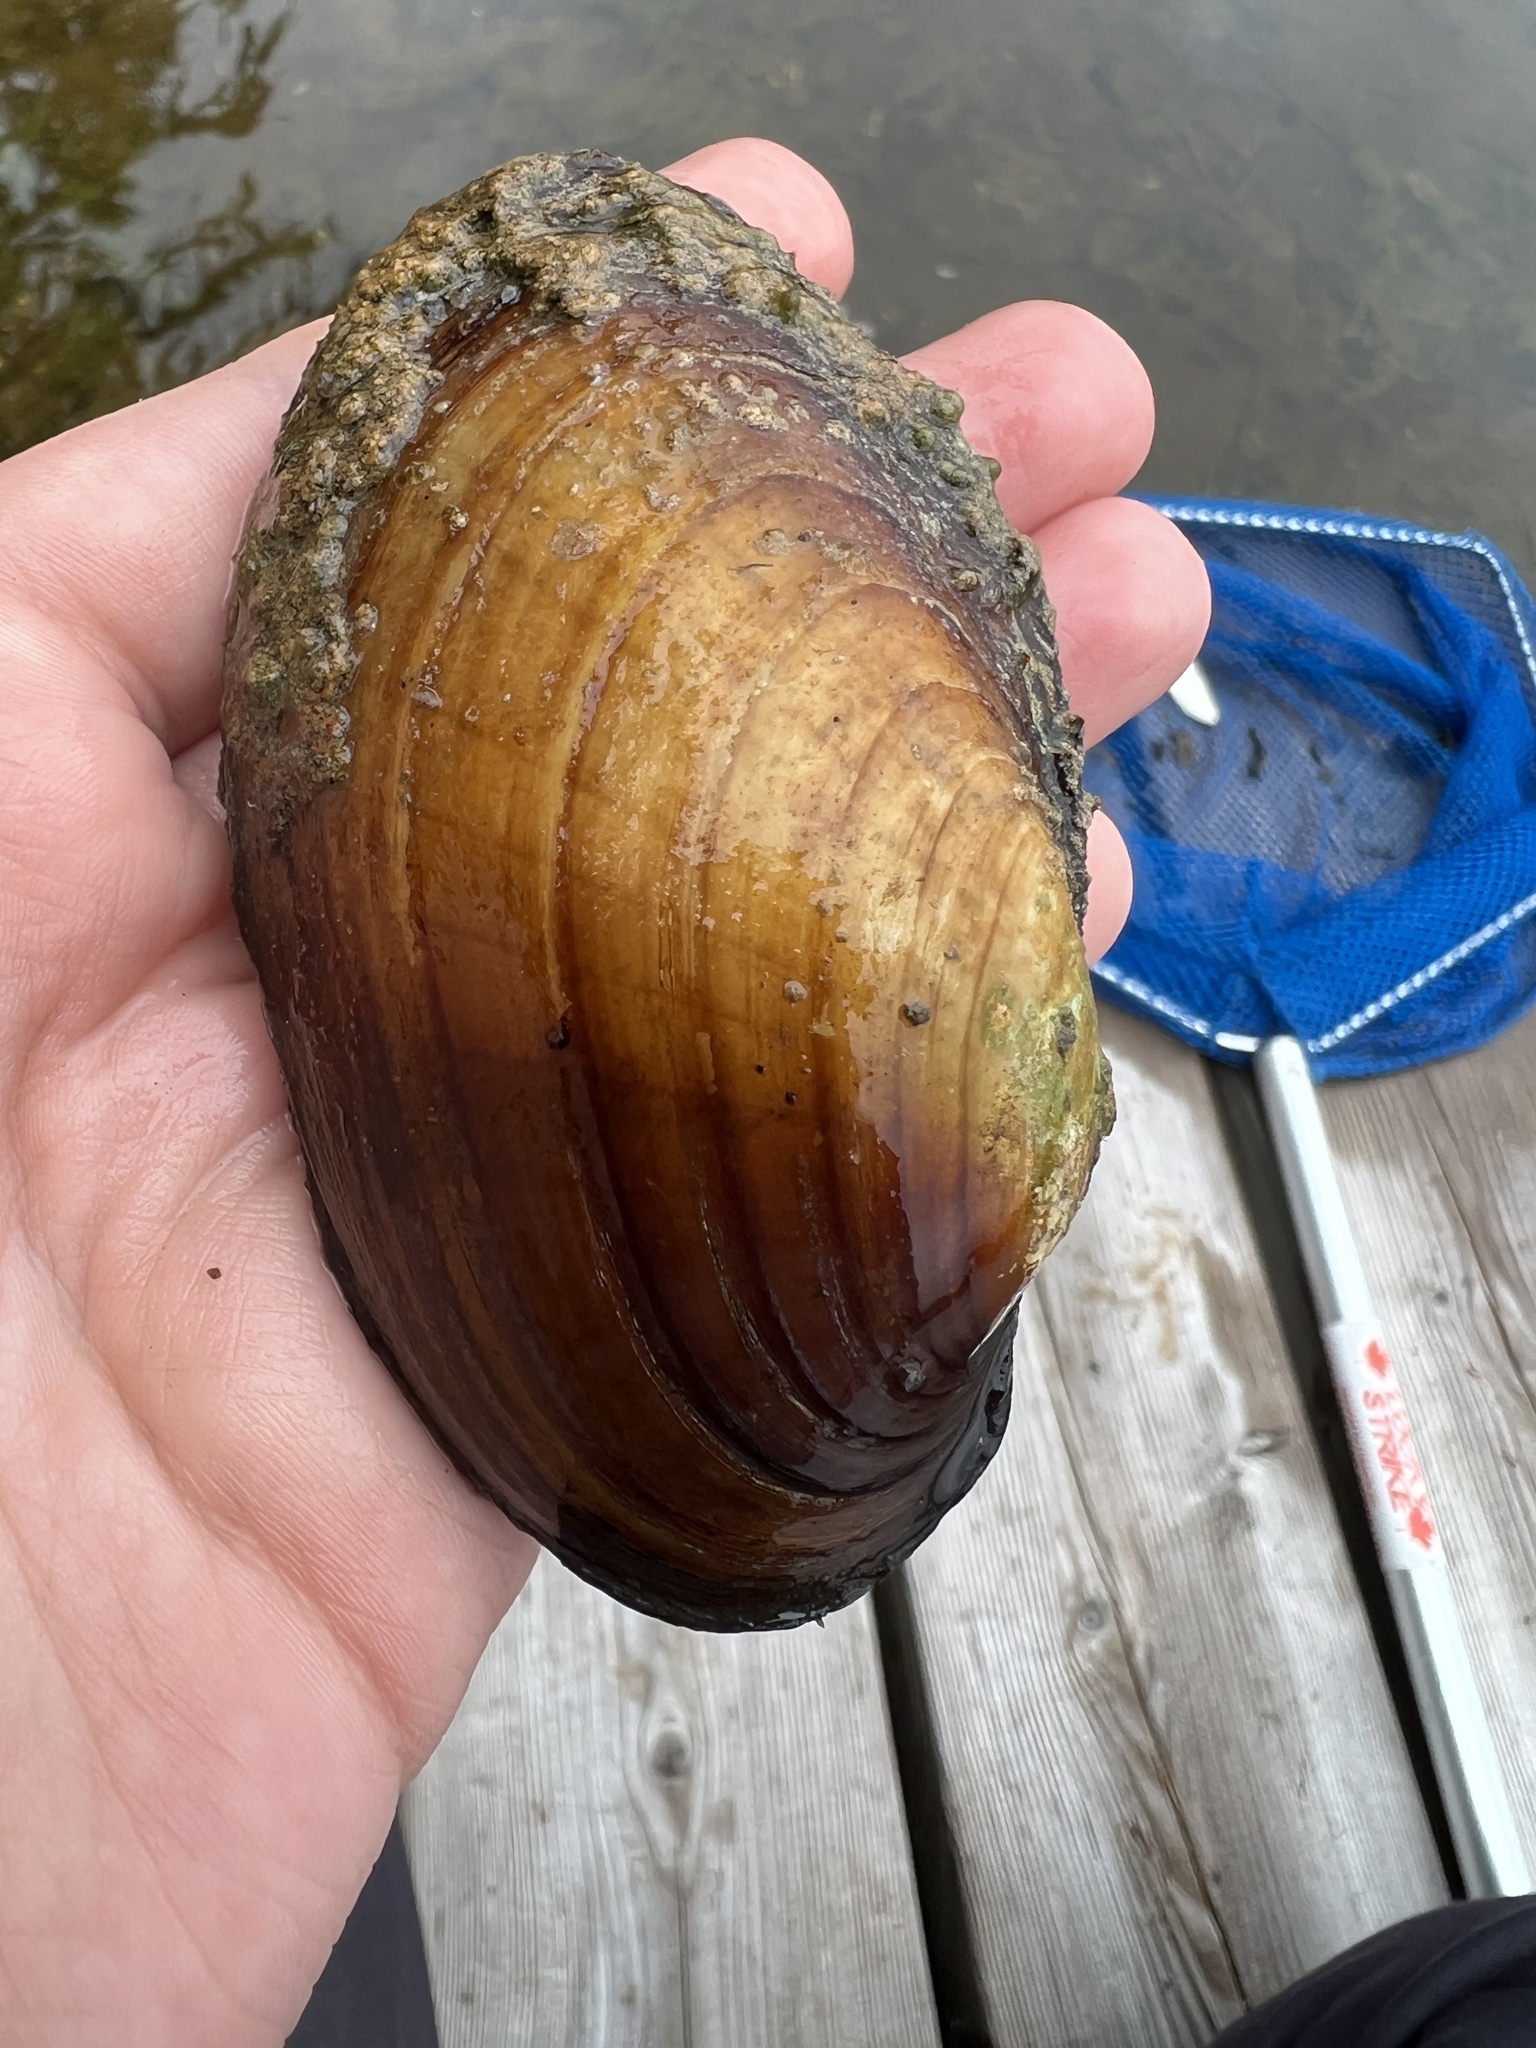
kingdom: Animalia
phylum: Mollusca
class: Bivalvia
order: Unionida
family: Unionidae
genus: Lampsilis
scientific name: Lampsilis siliquoidea
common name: Fatmucket
